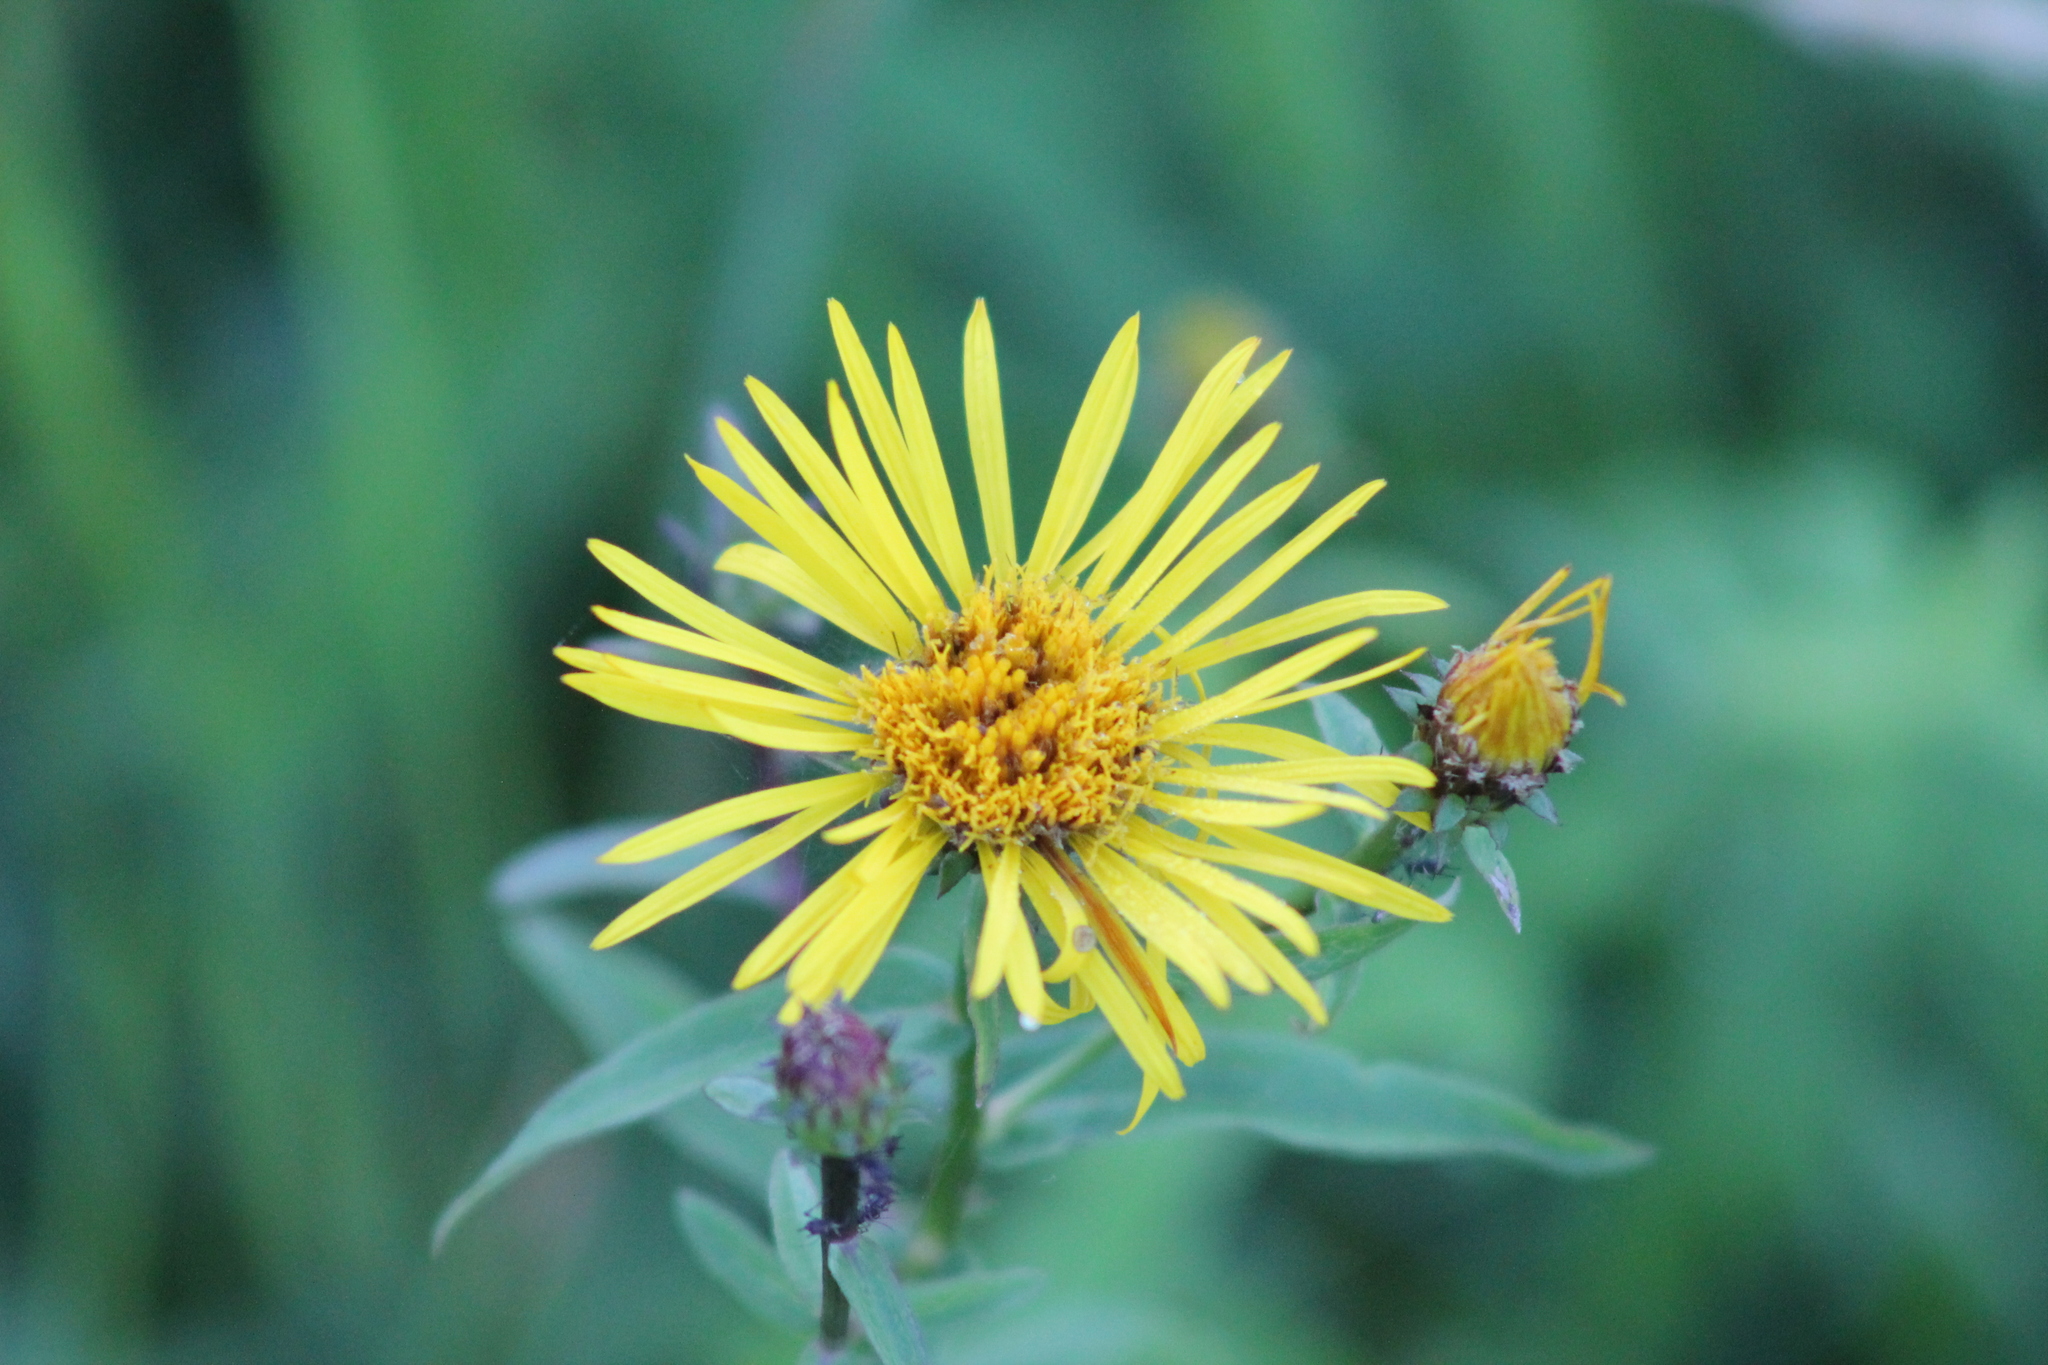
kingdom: Plantae
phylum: Tracheophyta
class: Magnoliopsida
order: Asterales
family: Asteraceae
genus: Pentanema
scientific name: Pentanema salicinum
